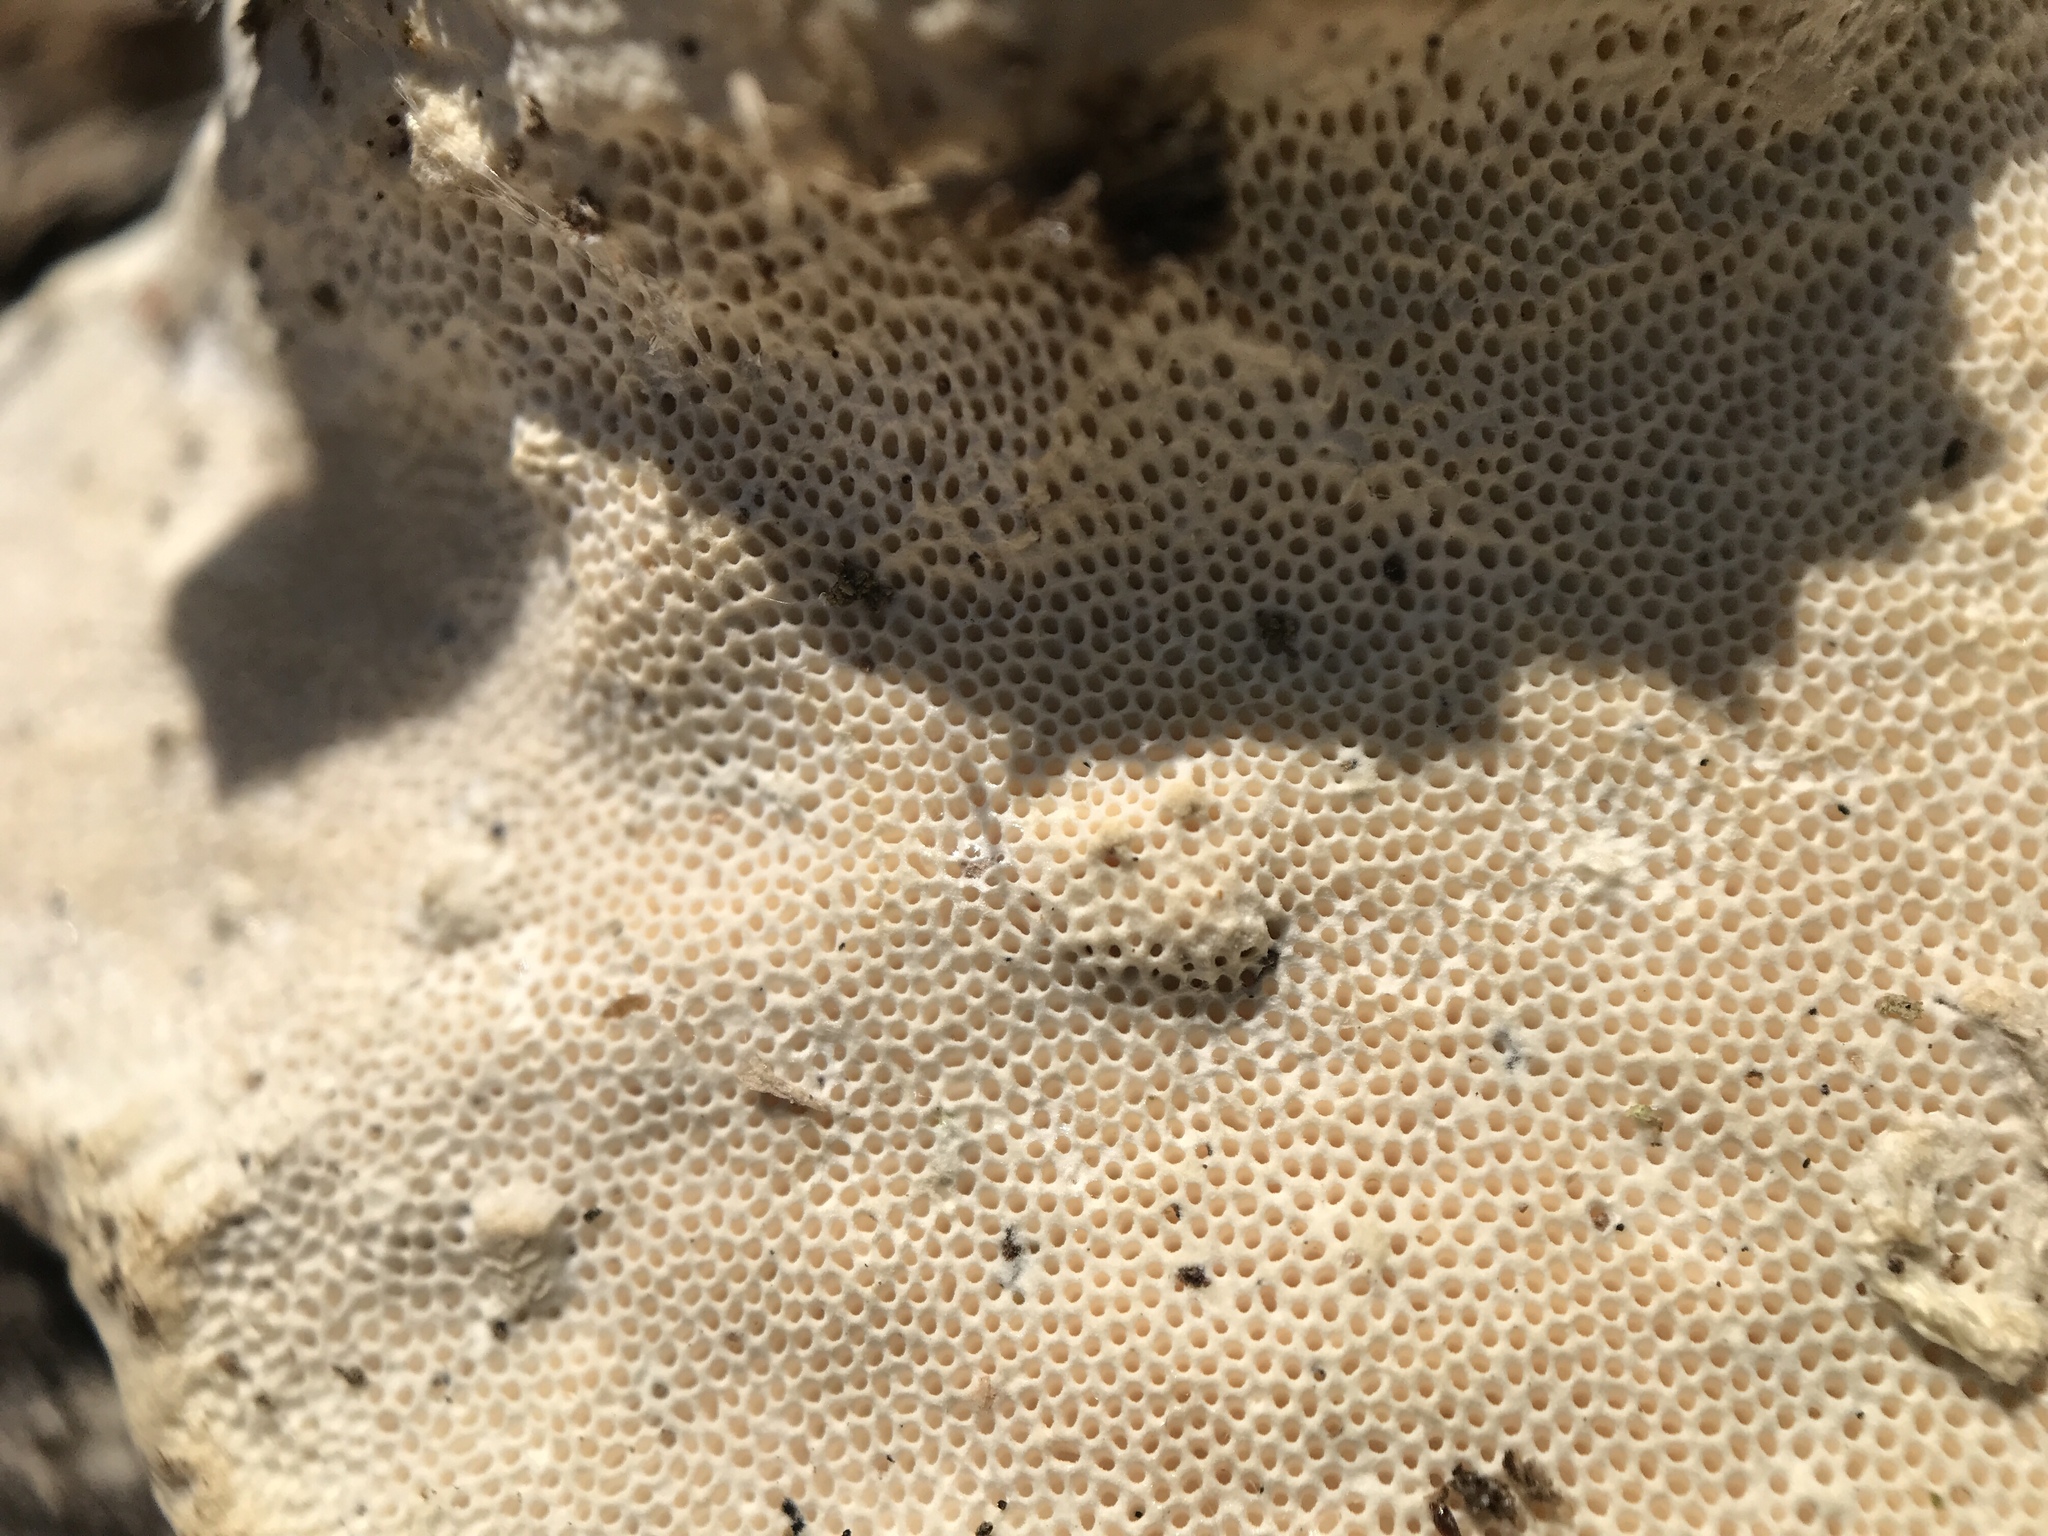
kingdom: Fungi
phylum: Basidiomycota
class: Agaricomycetes
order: Polyporales
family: Polyporaceae
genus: Trametes
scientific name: Trametes gibbosa
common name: Lumpy bracket
